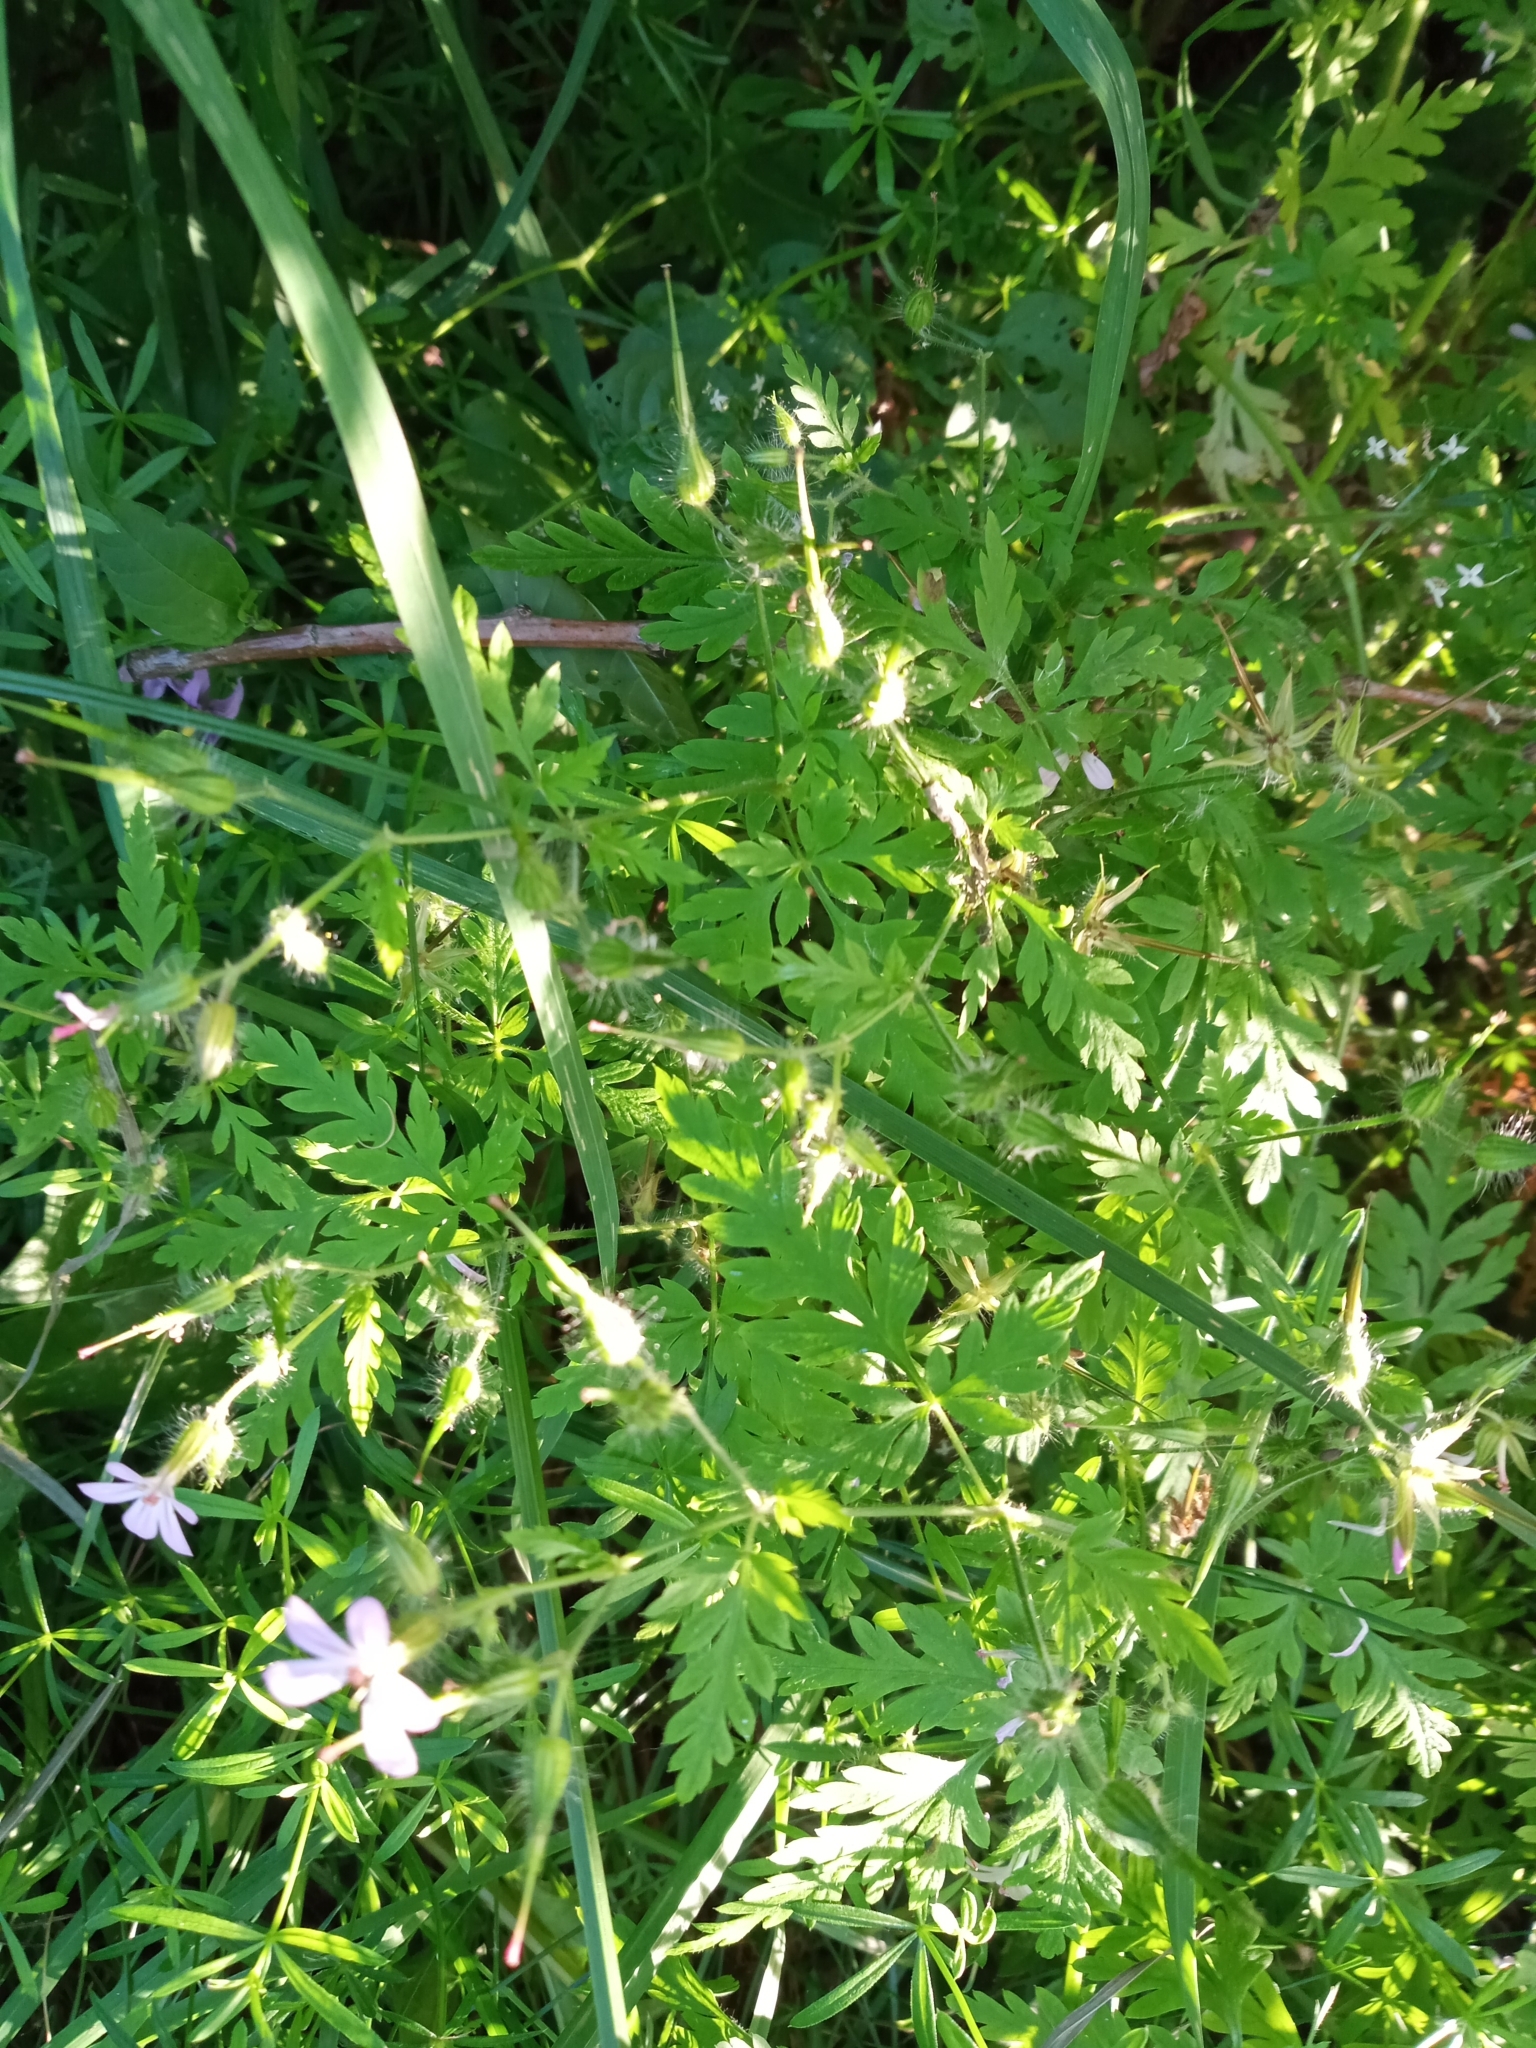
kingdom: Plantae
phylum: Tracheophyta
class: Magnoliopsida
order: Geraniales
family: Geraniaceae
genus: Geranium
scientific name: Geranium robertianum
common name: Herb-robert
